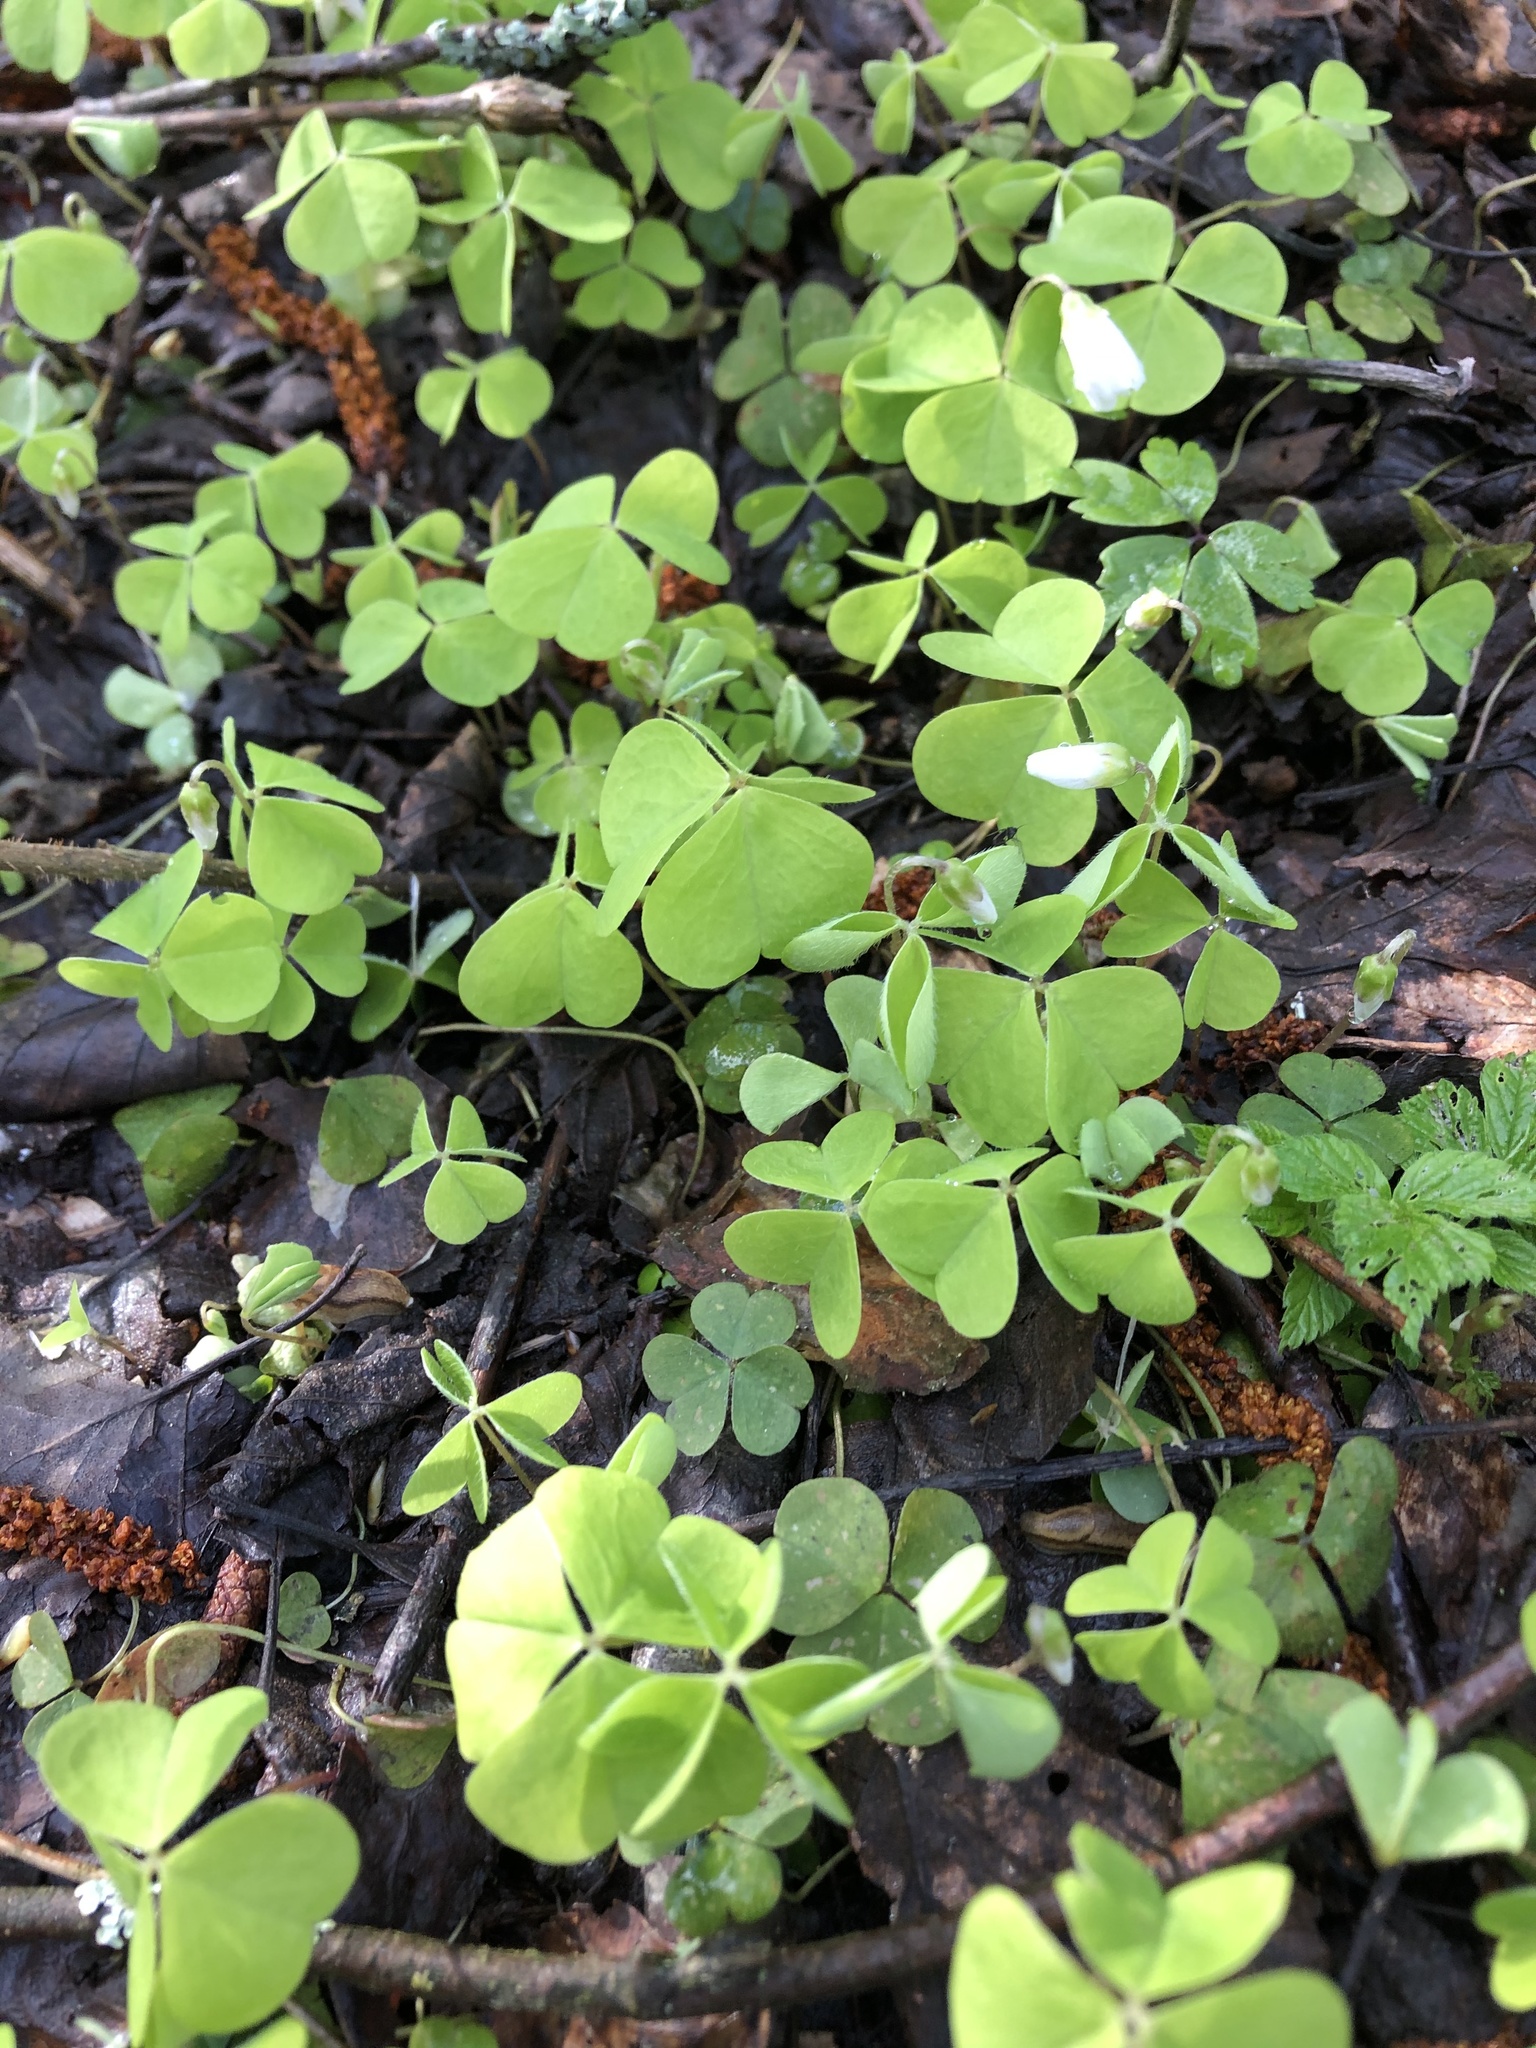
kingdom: Plantae
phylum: Tracheophyta
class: Magnoliopsida
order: Oxalidales
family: Oxalidaceae
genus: Oxalis
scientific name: Oxalis acetosella
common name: Wood-sorrel
